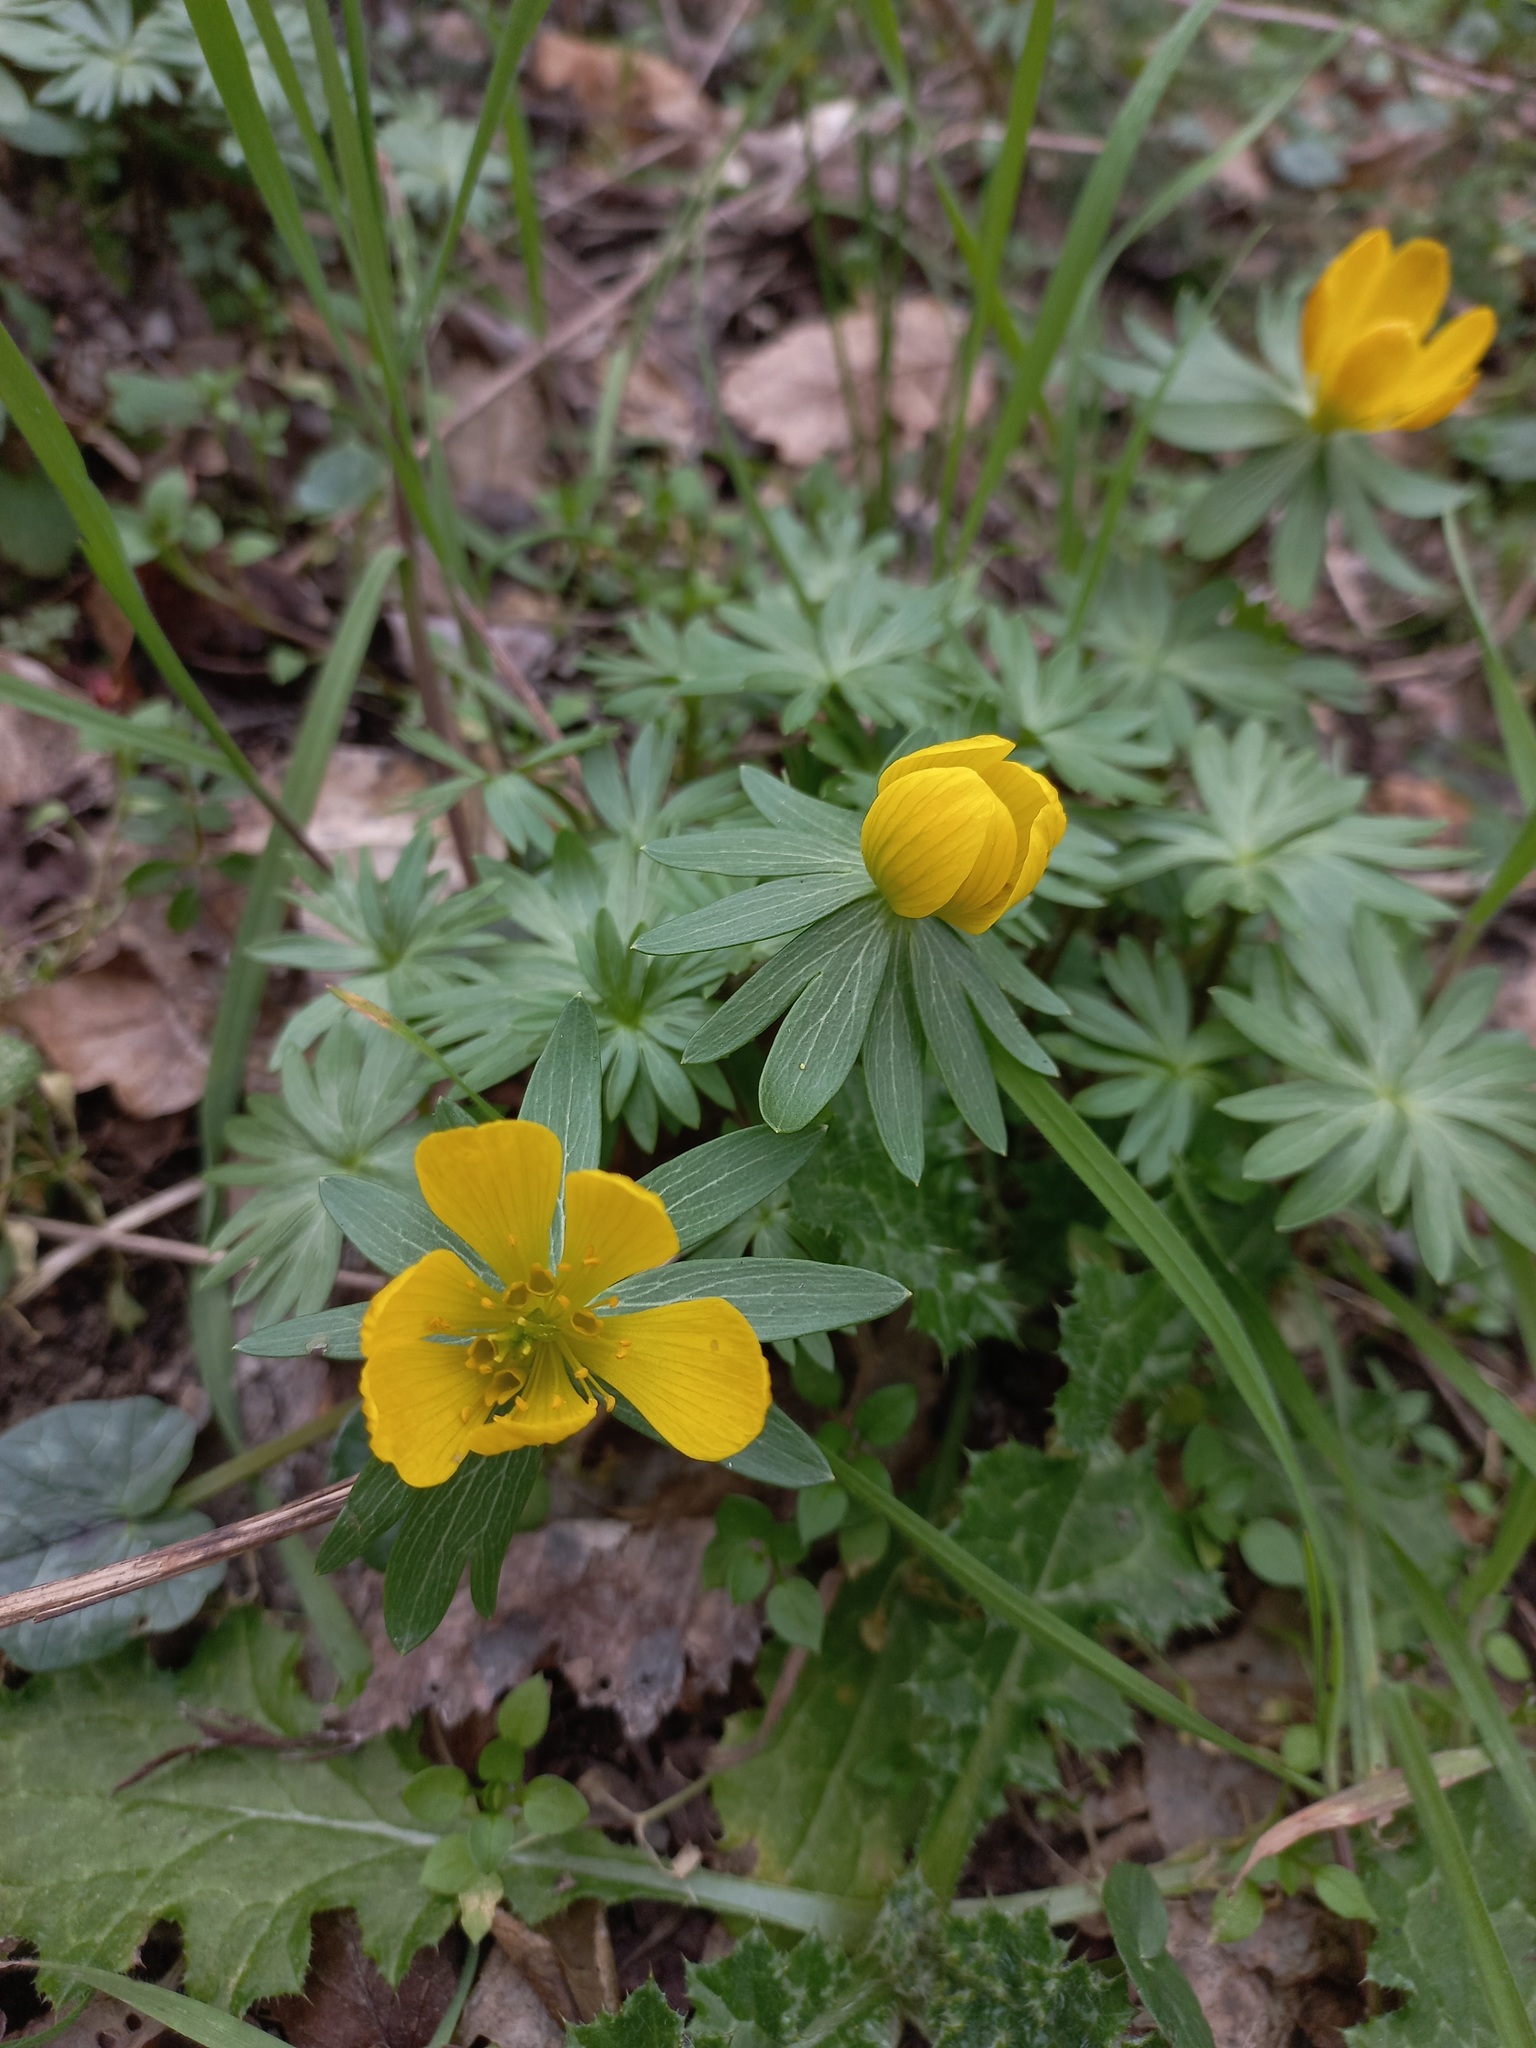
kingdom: Plantae
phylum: Tracheophyta
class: Magnoliopsida
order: Ranunculales
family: Ranunculaceae
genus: Eranthis
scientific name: Eranthis hyemalis
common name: Winter aconite
